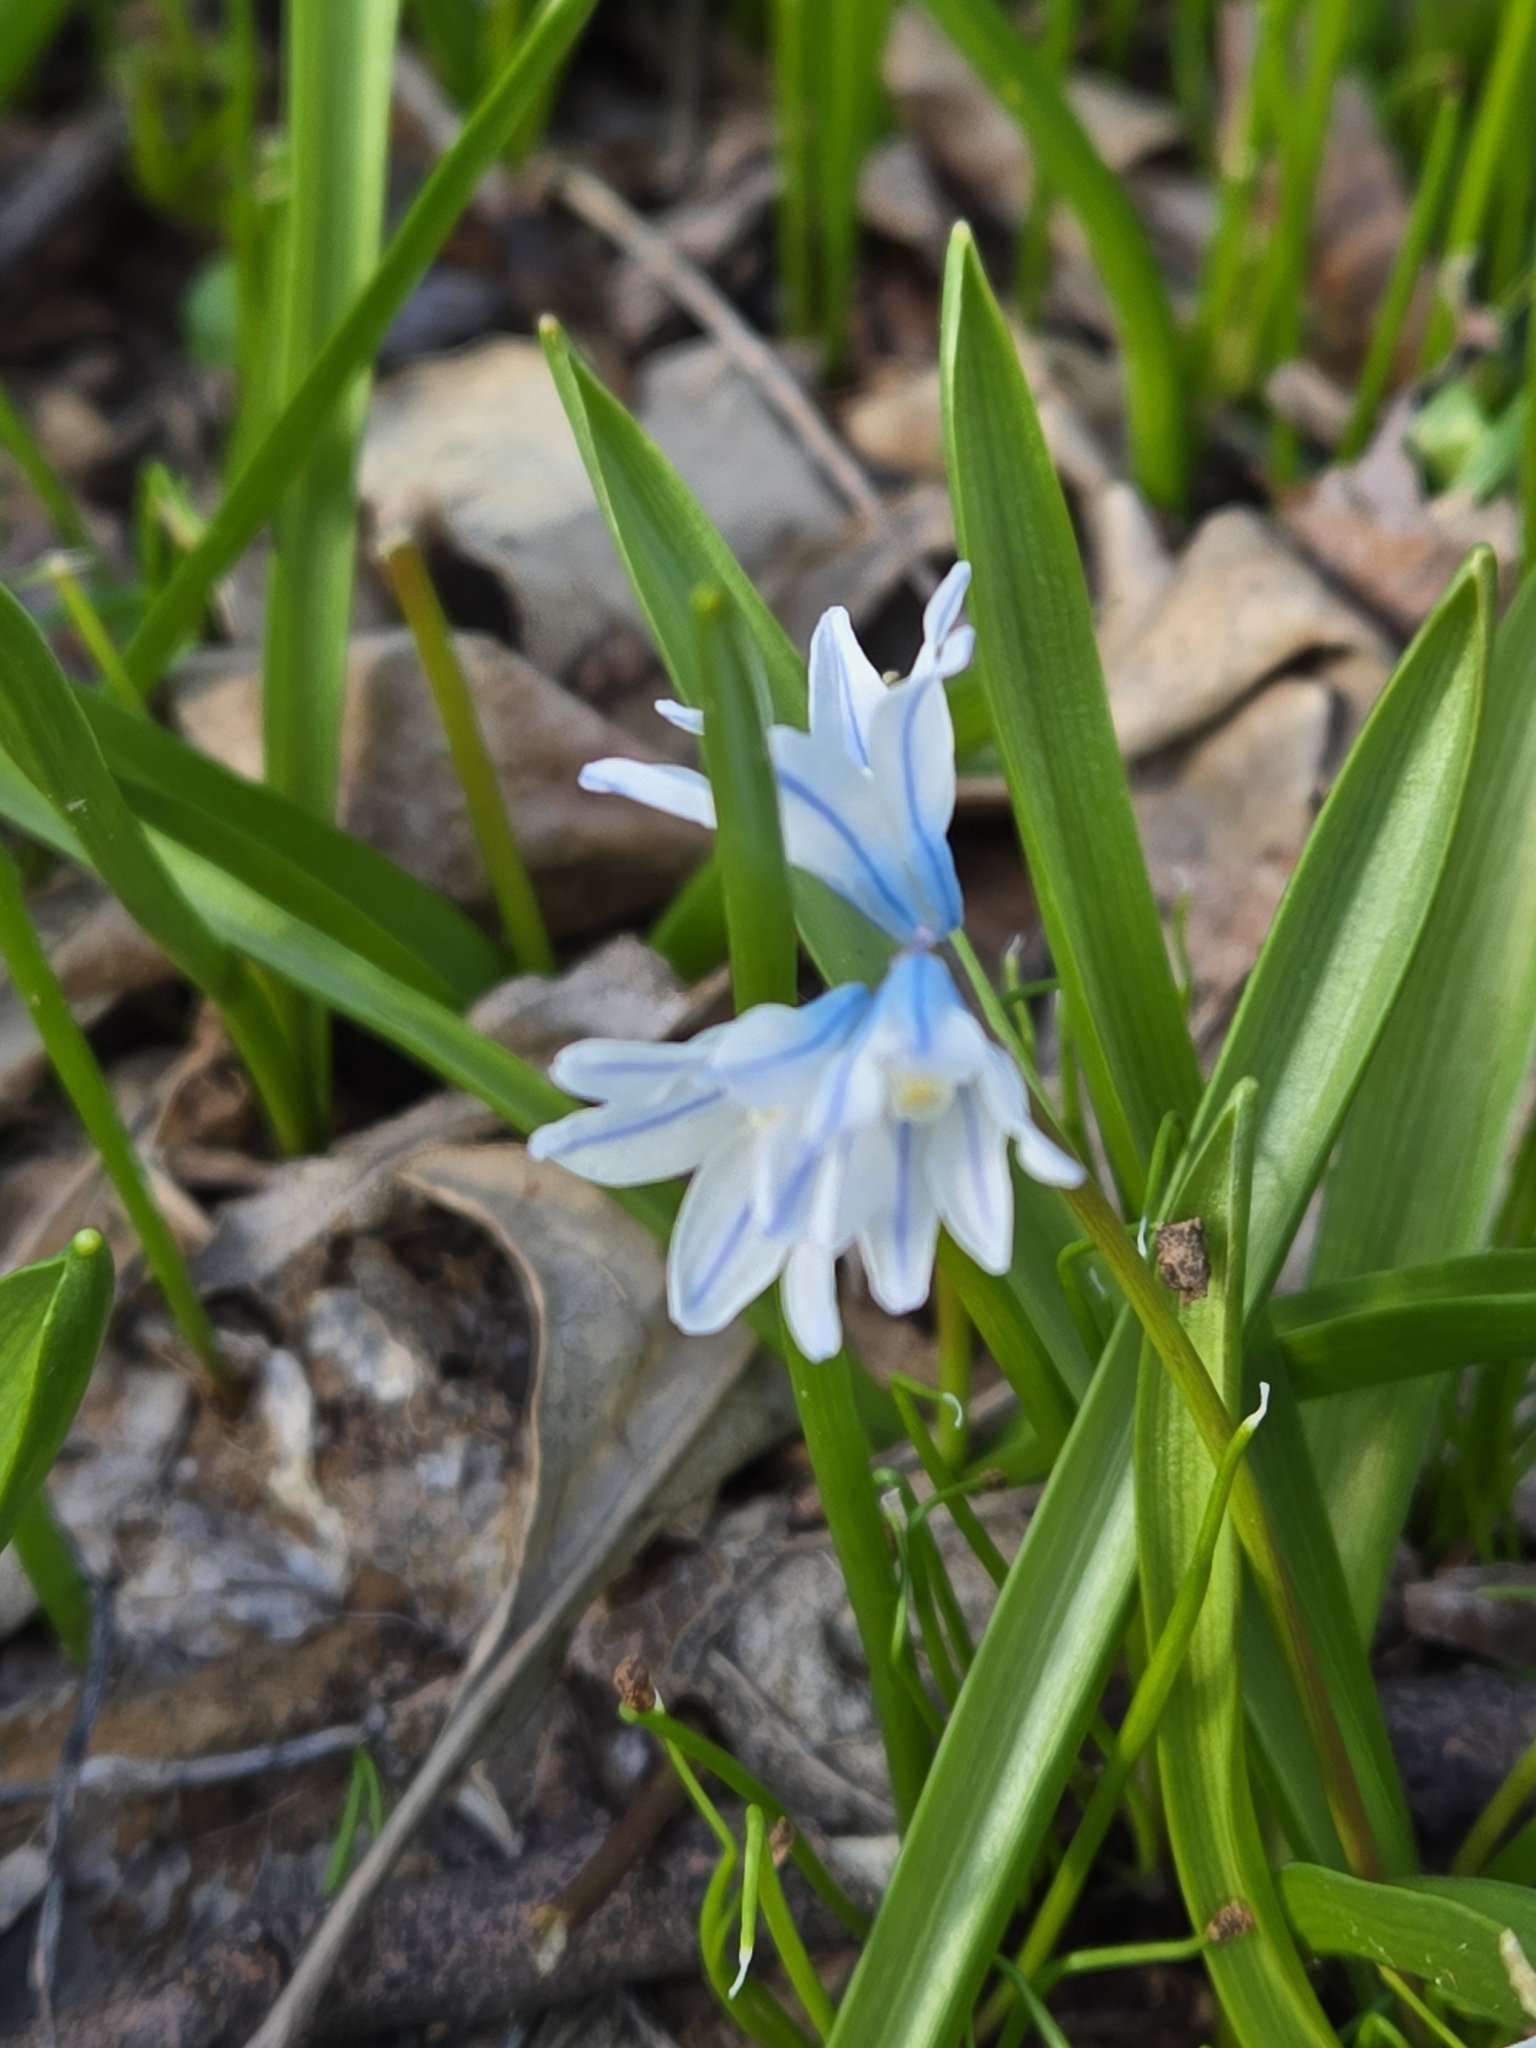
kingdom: Plantae
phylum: Tracheophyta
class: Liliopsida
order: Asparagales
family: Asparagaceae
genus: Puschkinia
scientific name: Puschkinia scilloides
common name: Striped squill
